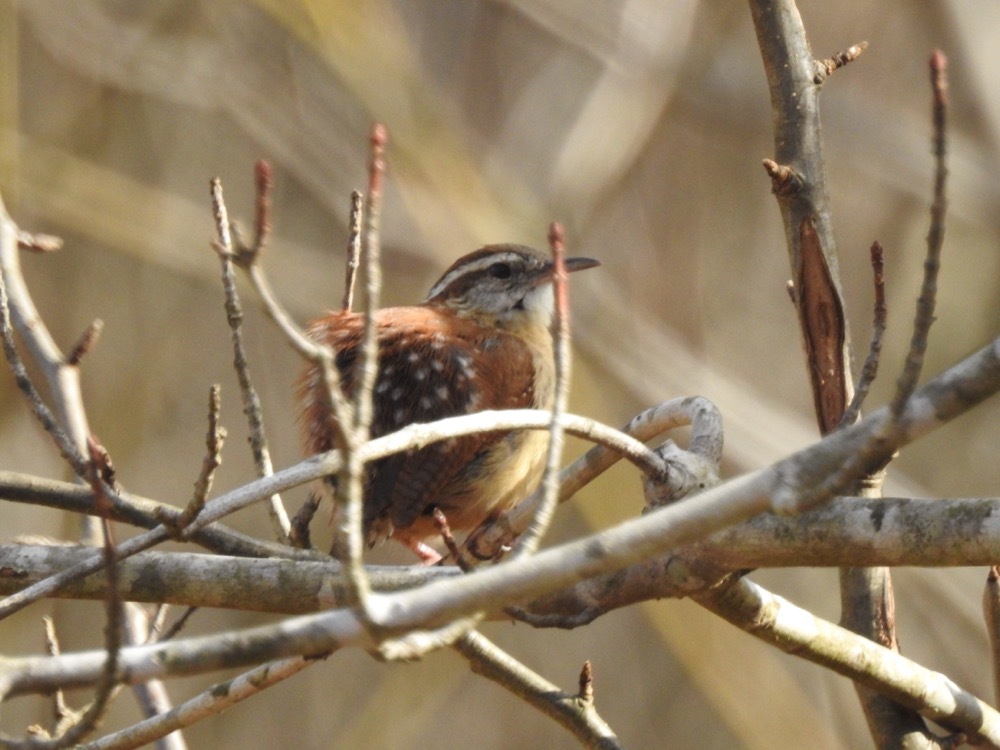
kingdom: Animalia
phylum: Chordata
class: Aves
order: Passeriformes
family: Troglodytidae
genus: Thryothorus
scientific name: Thryothorus ludovicianus
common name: Carolina wren
